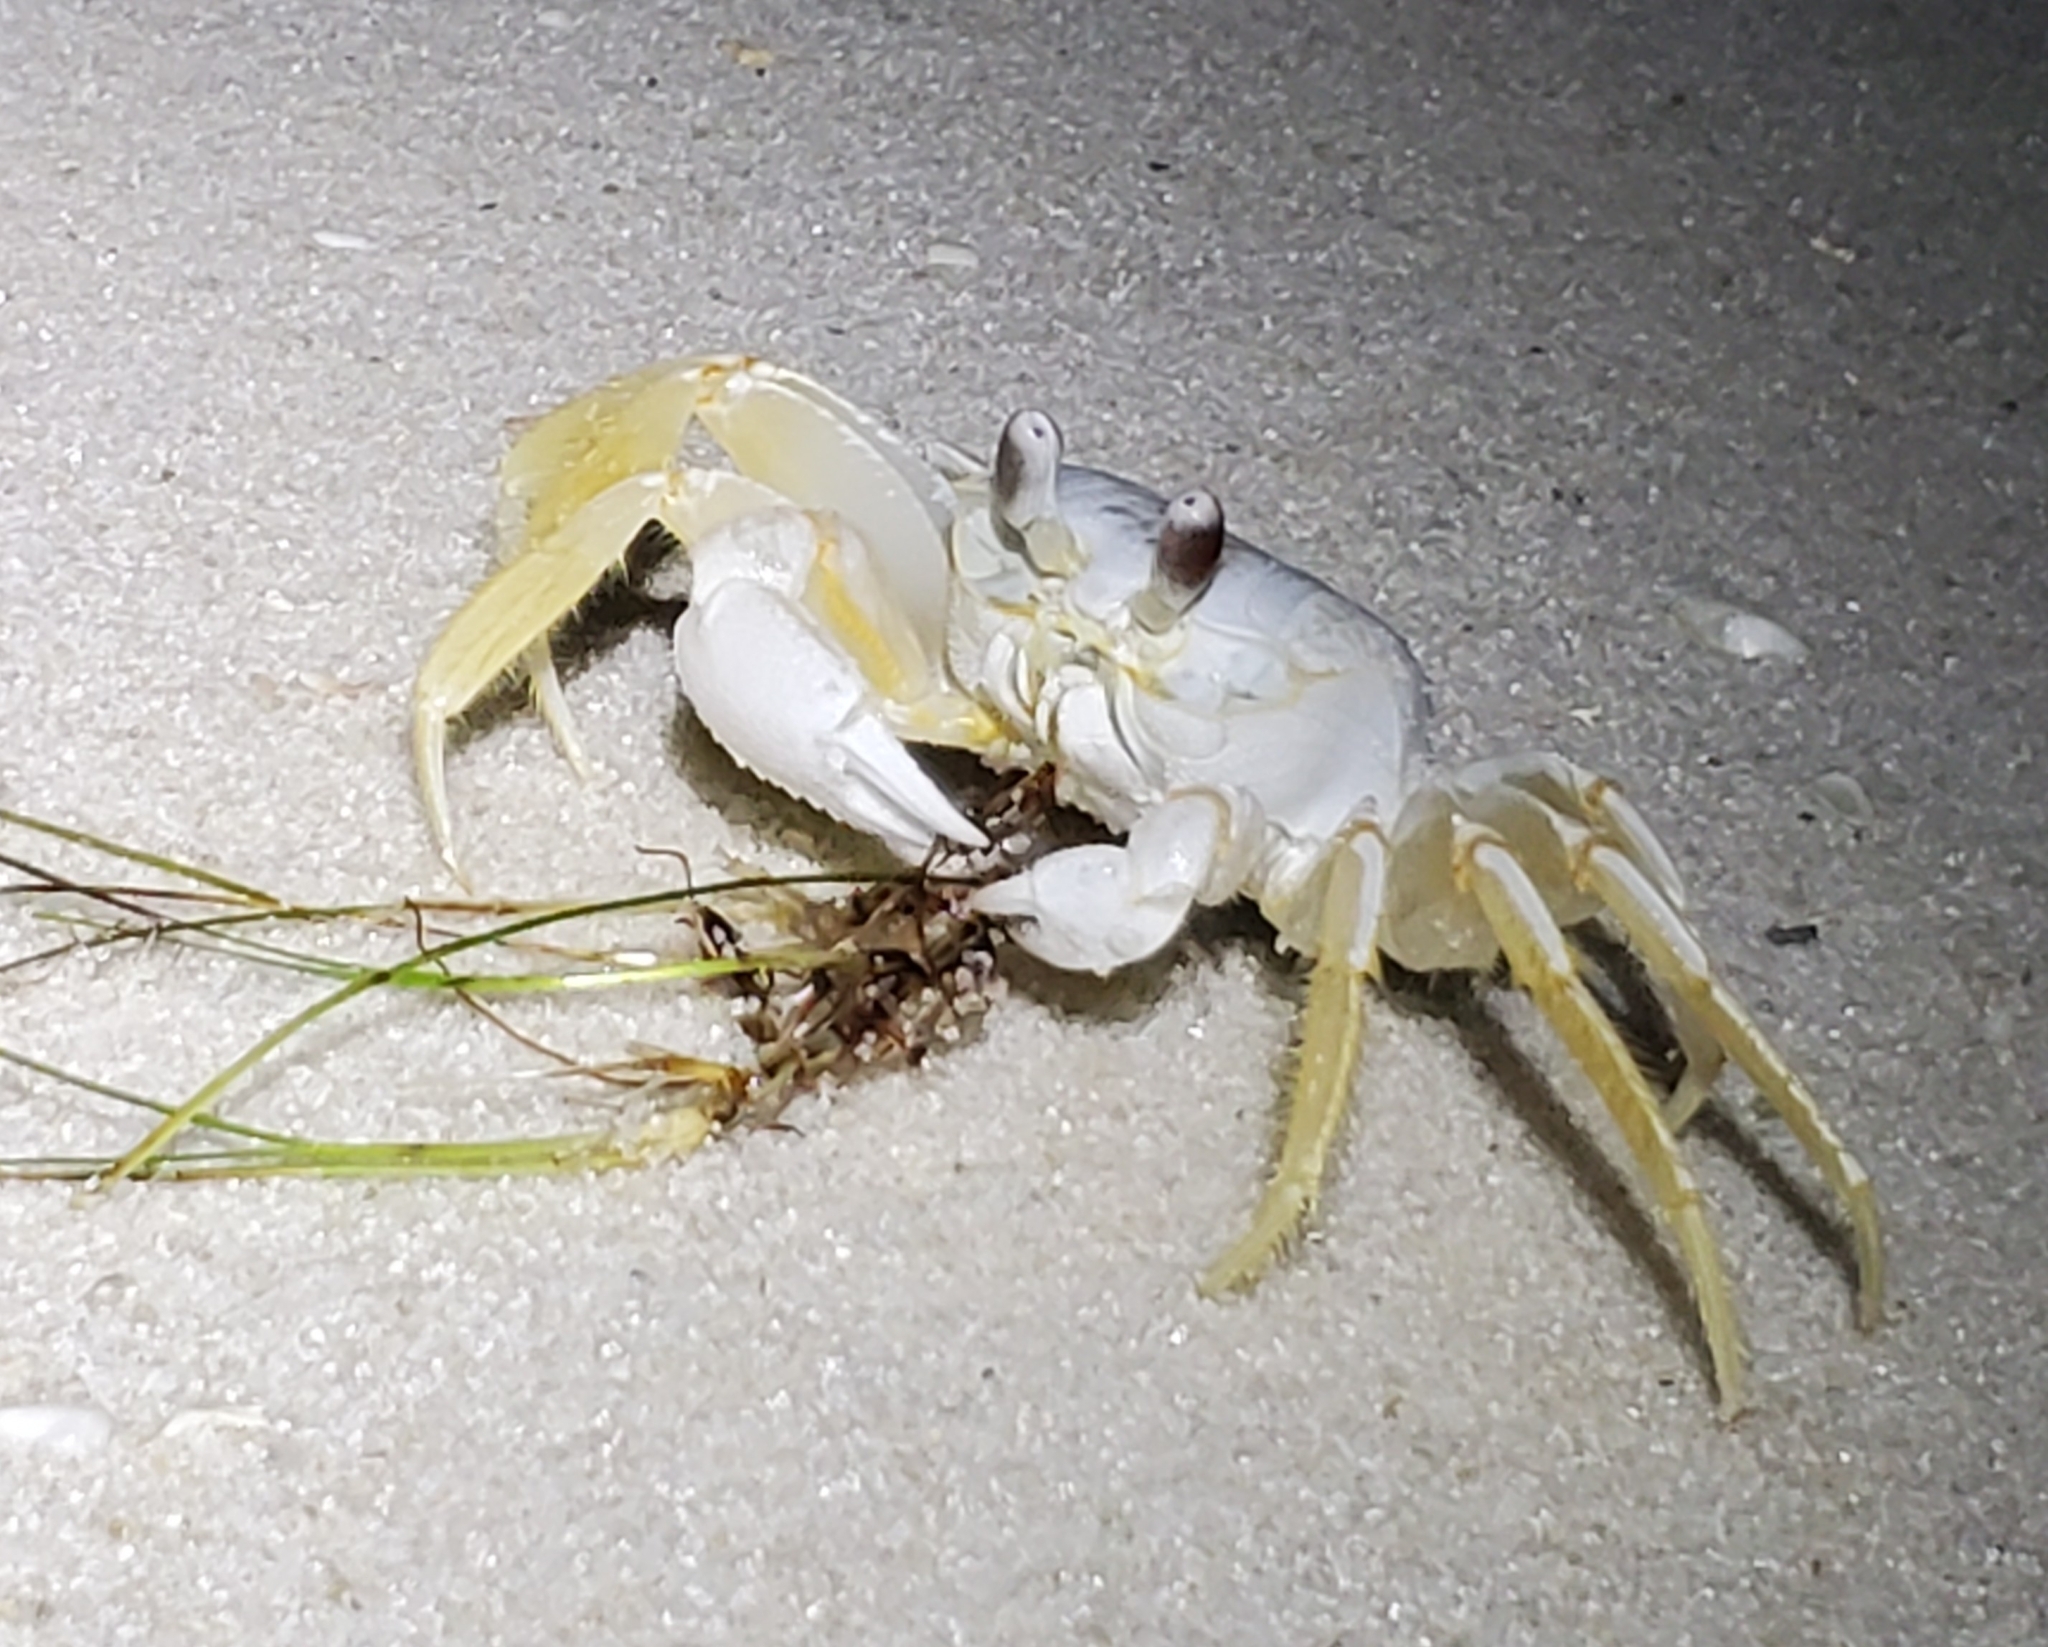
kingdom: Animalia
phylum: Arthropoda
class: Malacostraca
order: Decapoda
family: Ocypodidae
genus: Ocypode
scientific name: Ocypode quadrata
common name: Ghost crab
